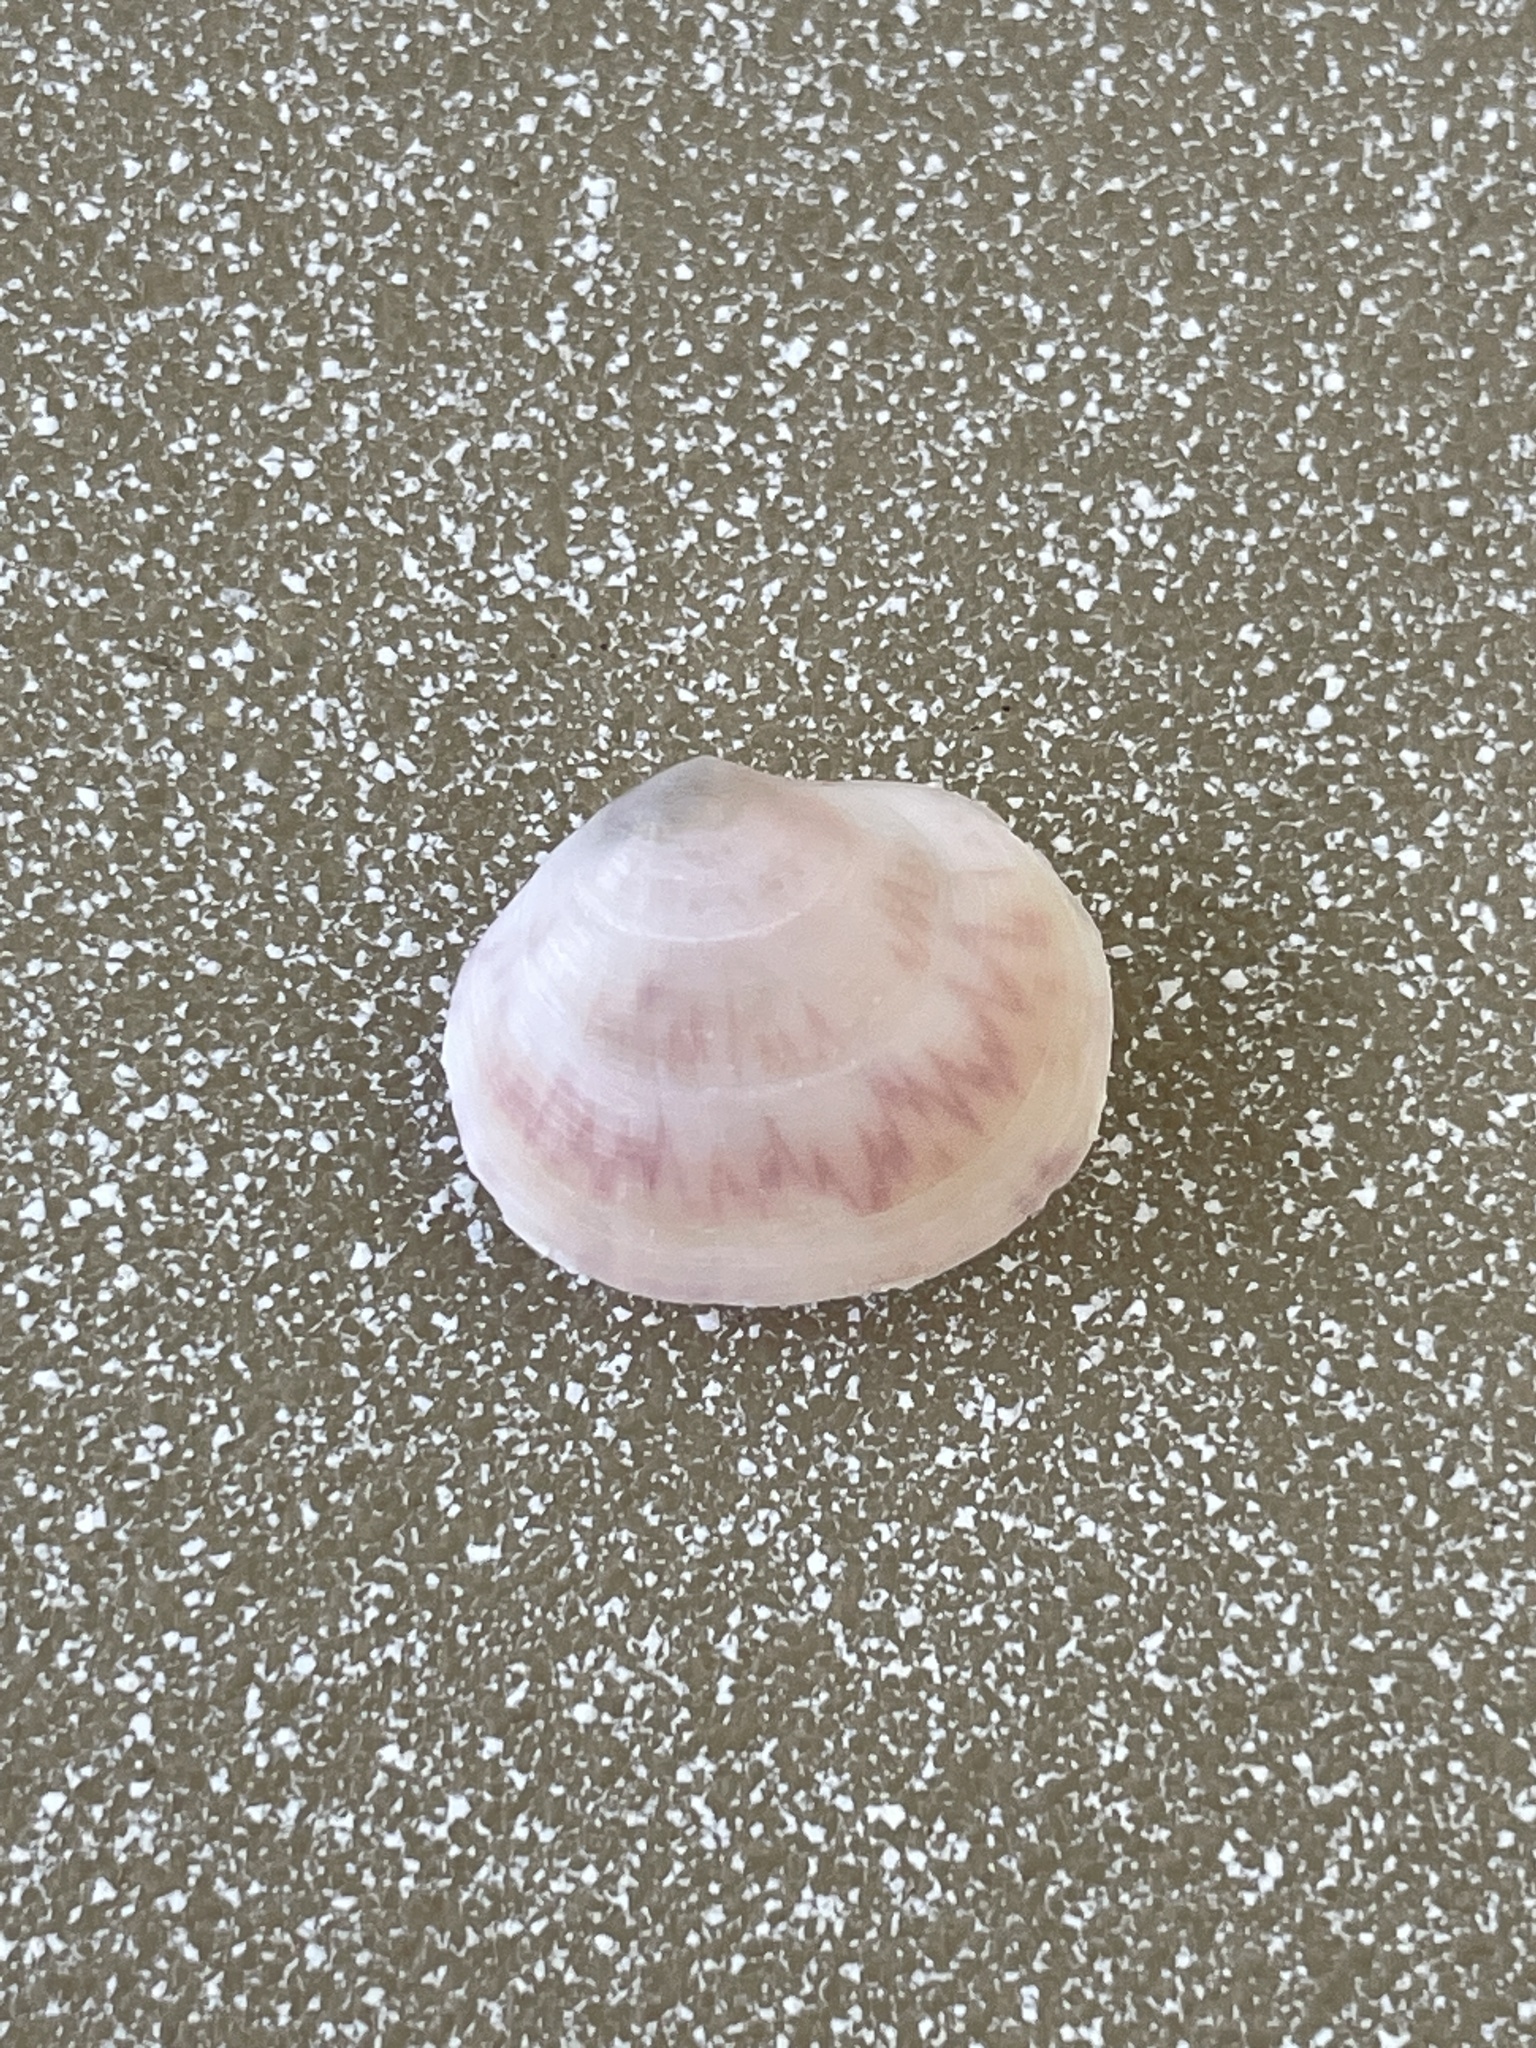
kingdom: Animalia
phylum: Mollusca
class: Bivalvia
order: Cardiida
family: Semelidae
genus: Semele
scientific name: Semele proficua
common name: White atlantic semele
